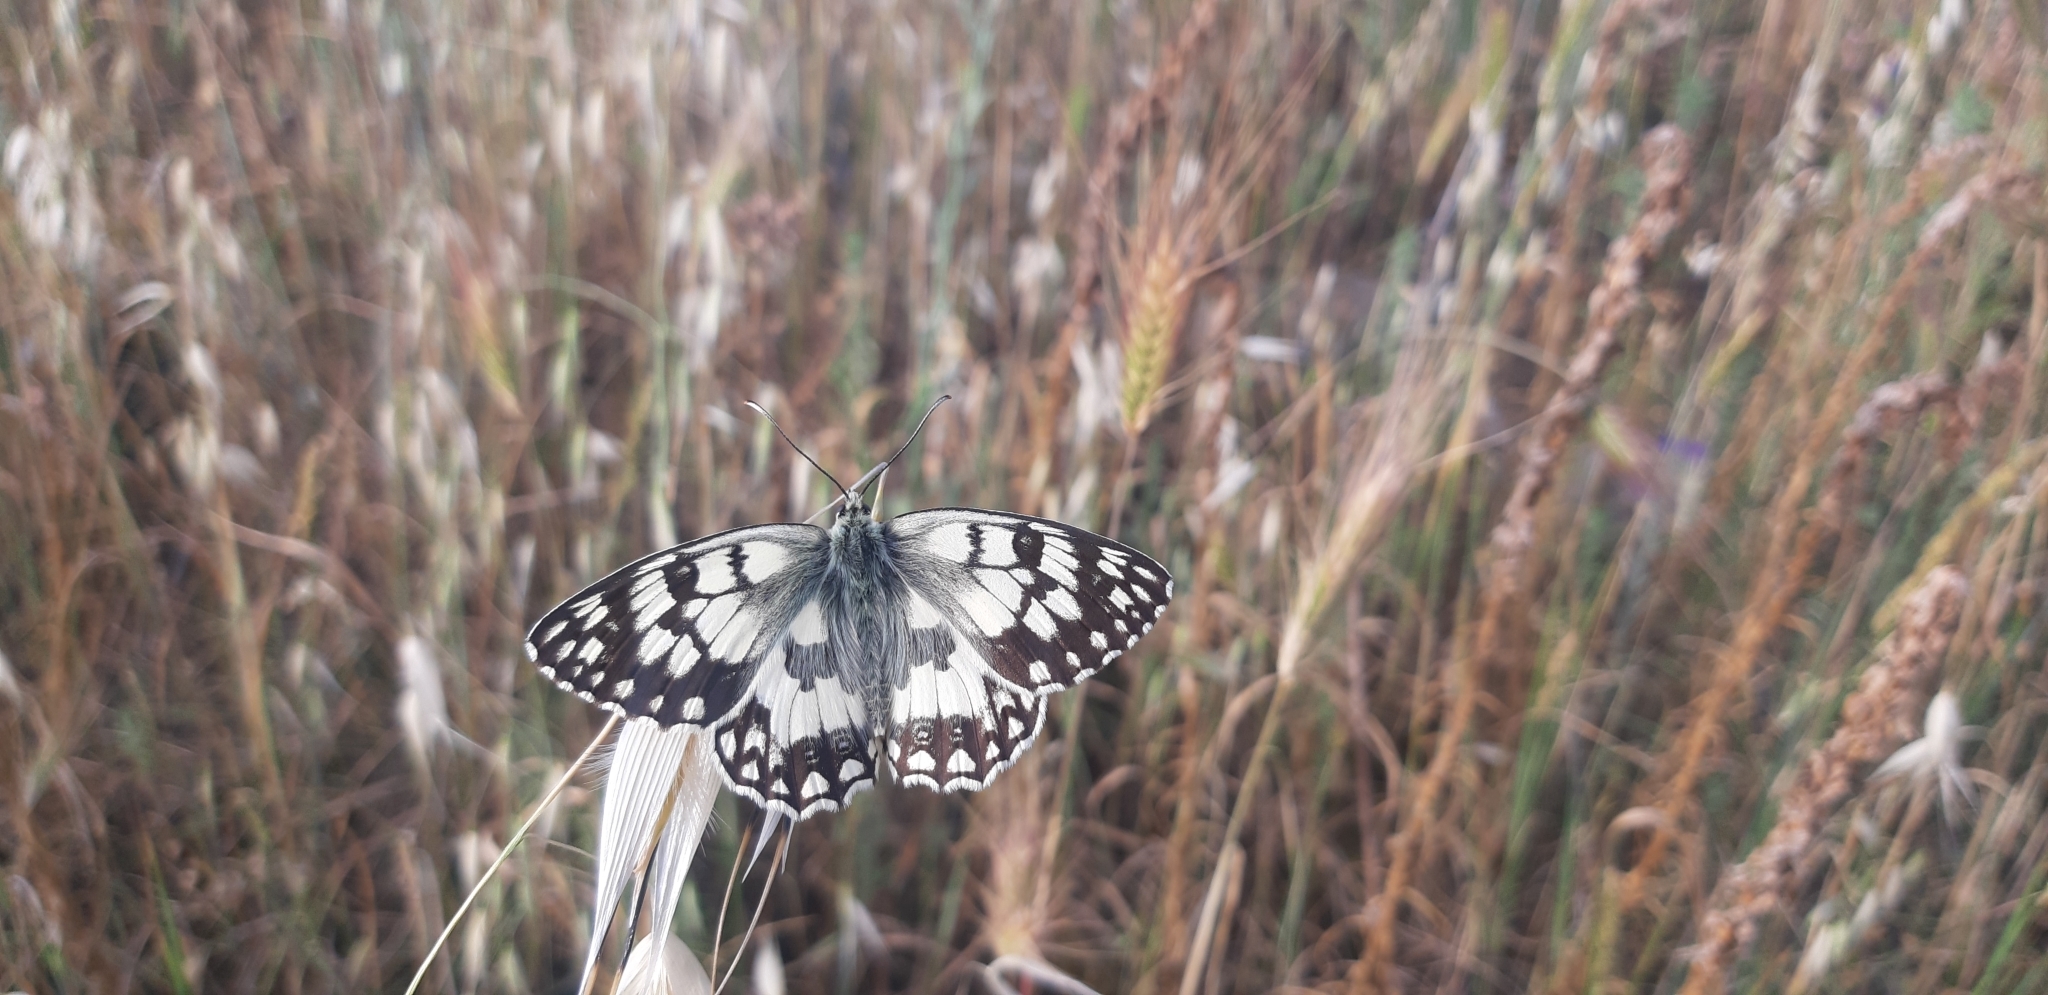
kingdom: Animalia
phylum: Arthropoda
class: Insecta
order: Lepidoptera
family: Nymphalidae
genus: Melanargia
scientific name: Melanargia japygia
